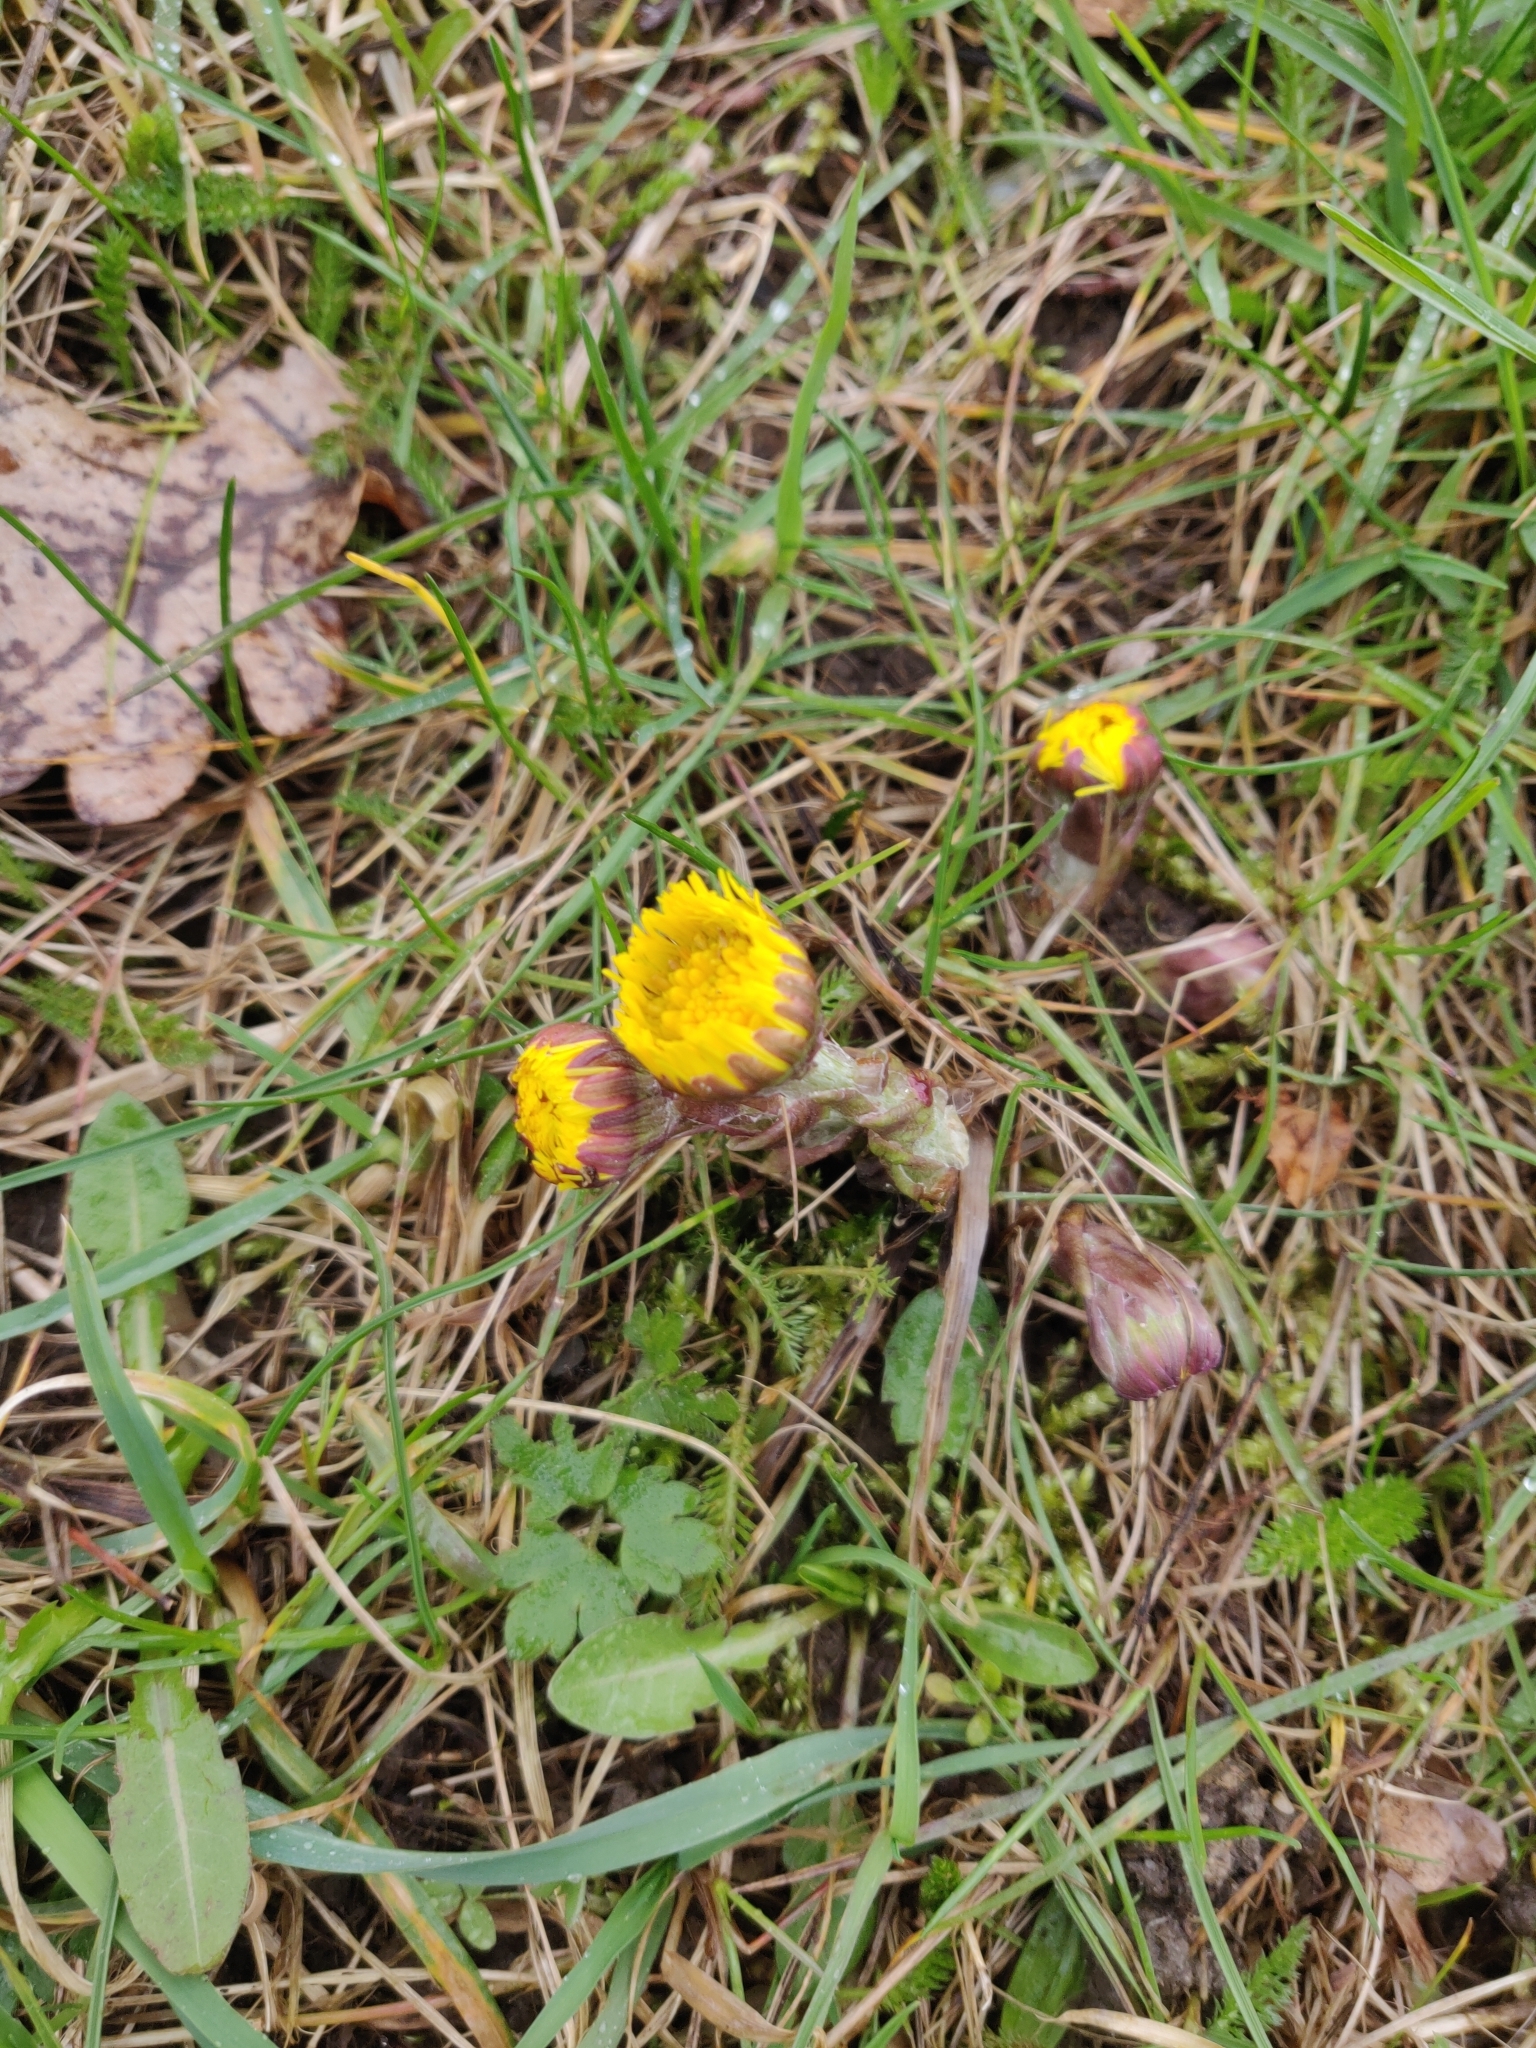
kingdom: Plantae
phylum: Tracheophyta
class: Magnoliopsida
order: Asterales
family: Asteraceae
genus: Tussilago
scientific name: Tussilago farfara
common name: Coltsfoot
